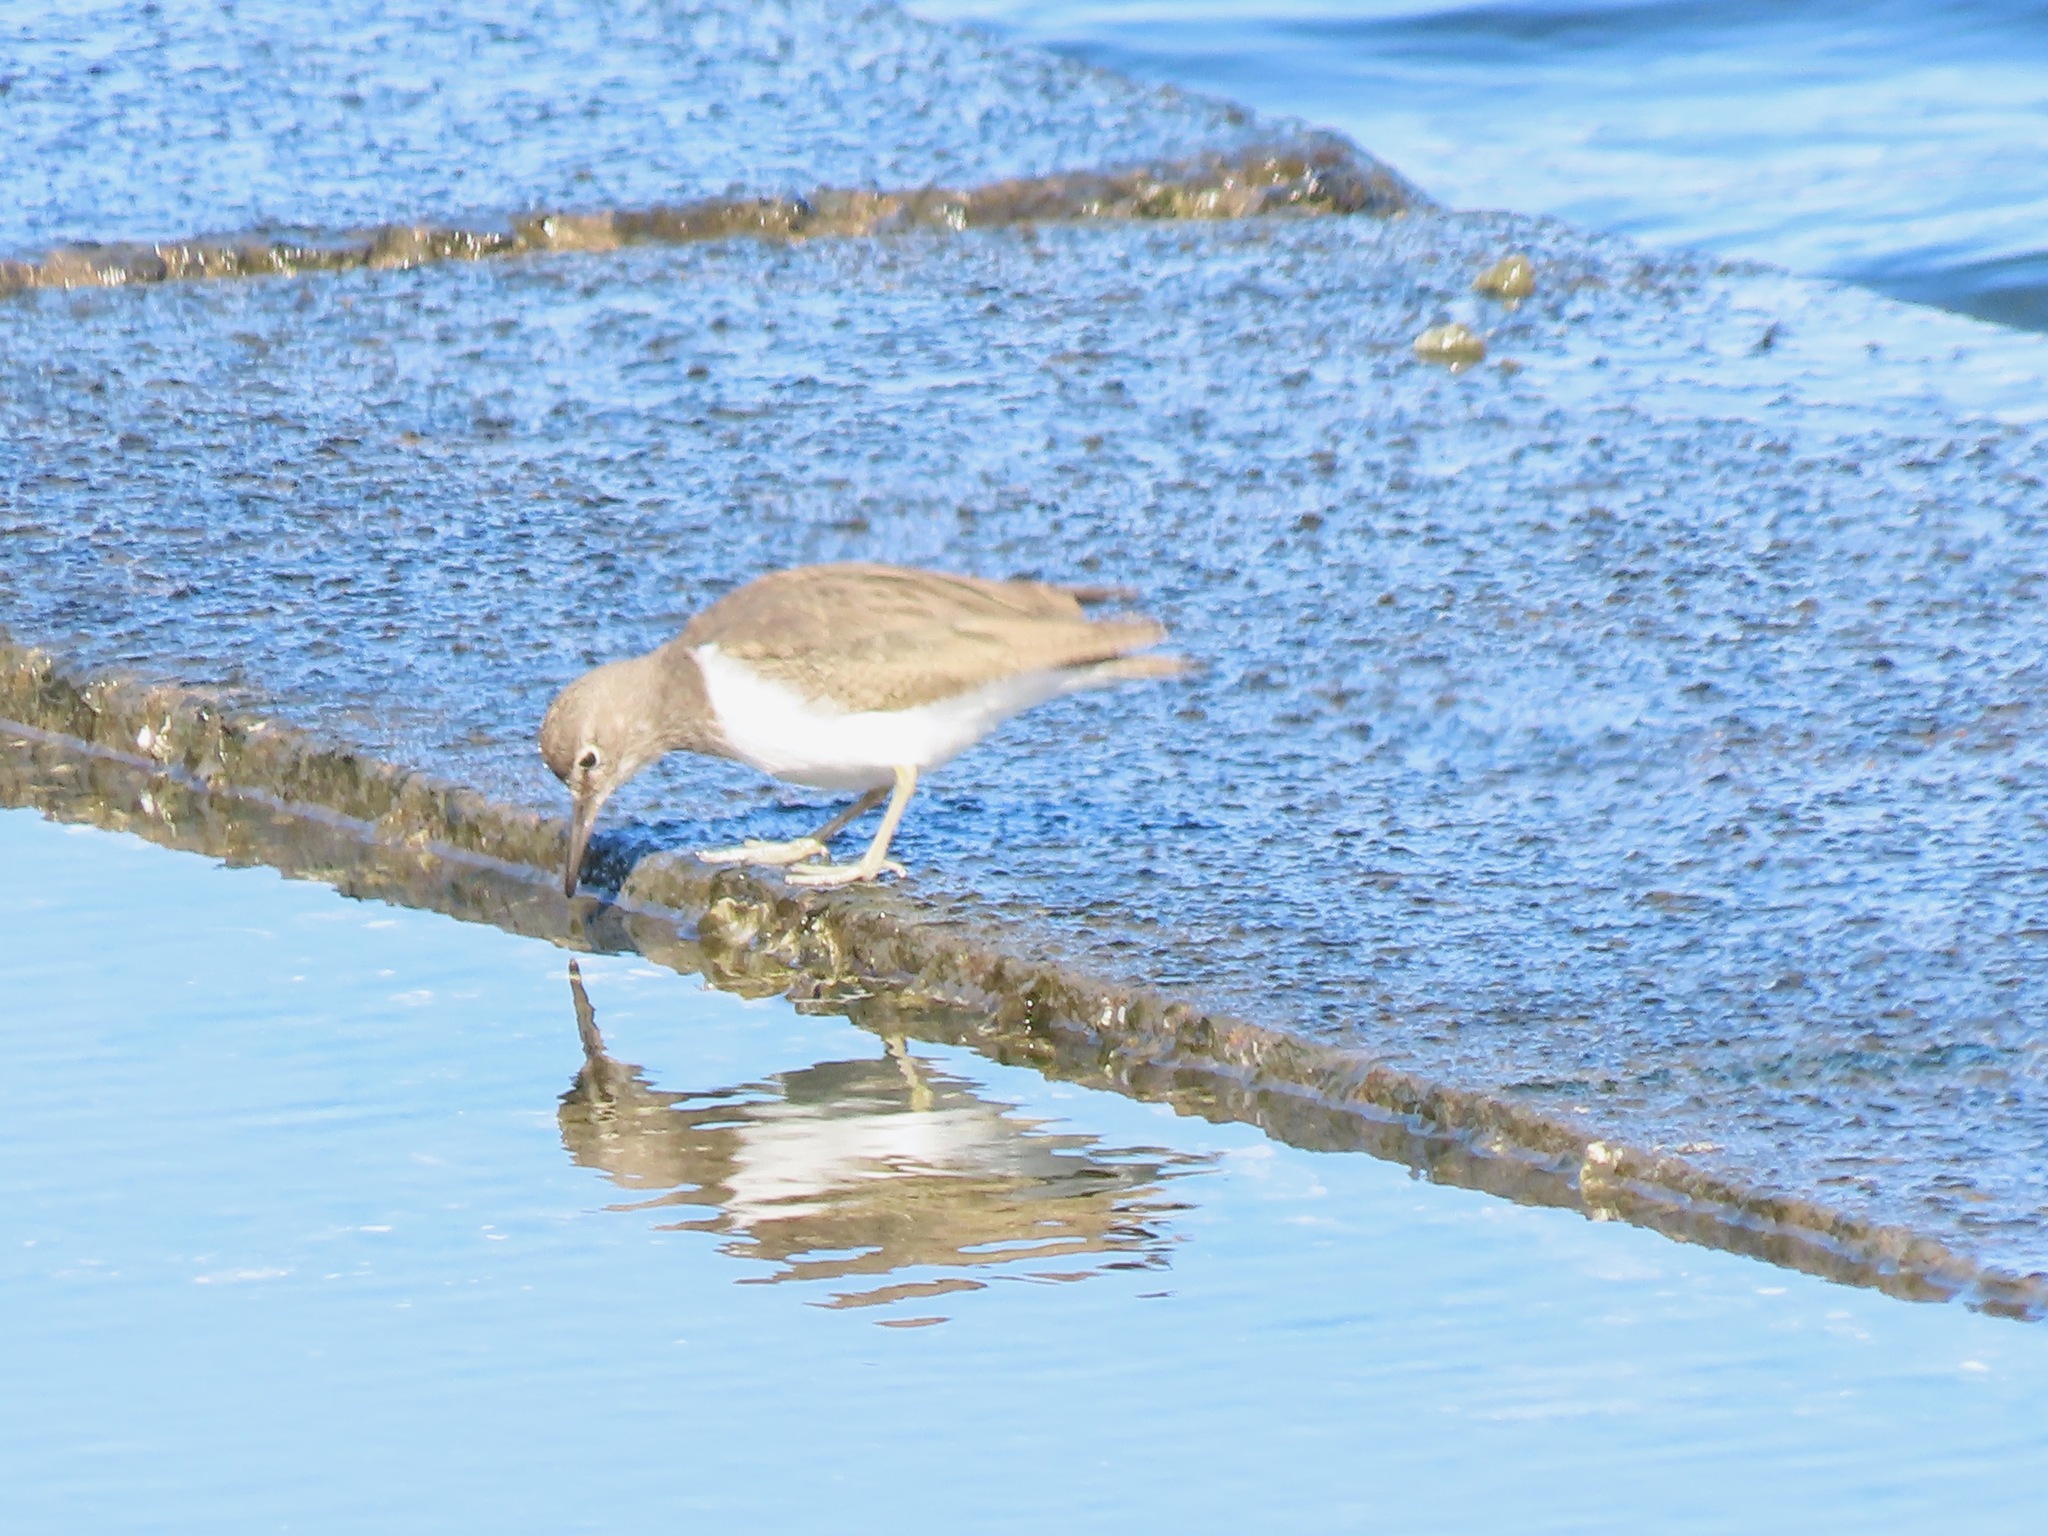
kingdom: Animalia
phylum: Chordata
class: Aves
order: Charadriiformes
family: Scolopacidae
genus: Actitis
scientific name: Actitis hypoleucos
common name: Common sandpiper
